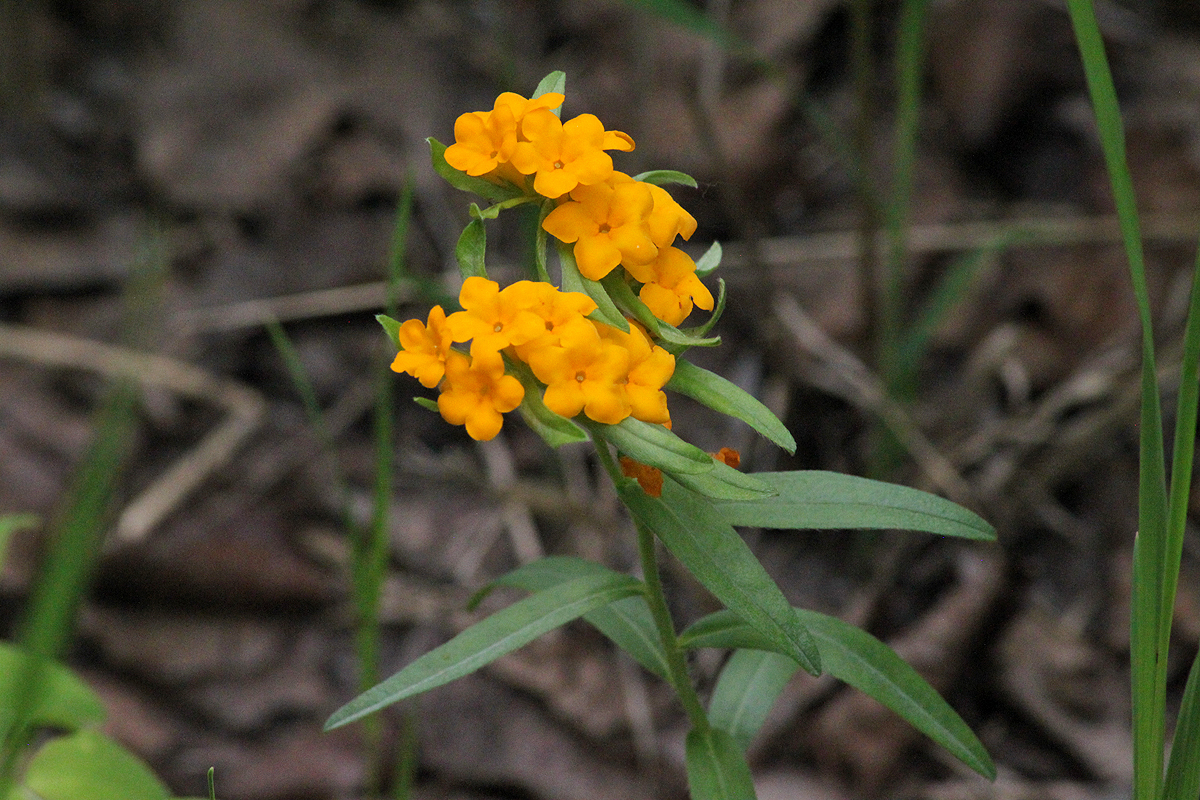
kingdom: Plantae
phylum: Tracheophyta
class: Magnoliopsida
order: Boraginales
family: Boraginaceae
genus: Lithospermum
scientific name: Lithospermum canescens
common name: Hoary puccoon
